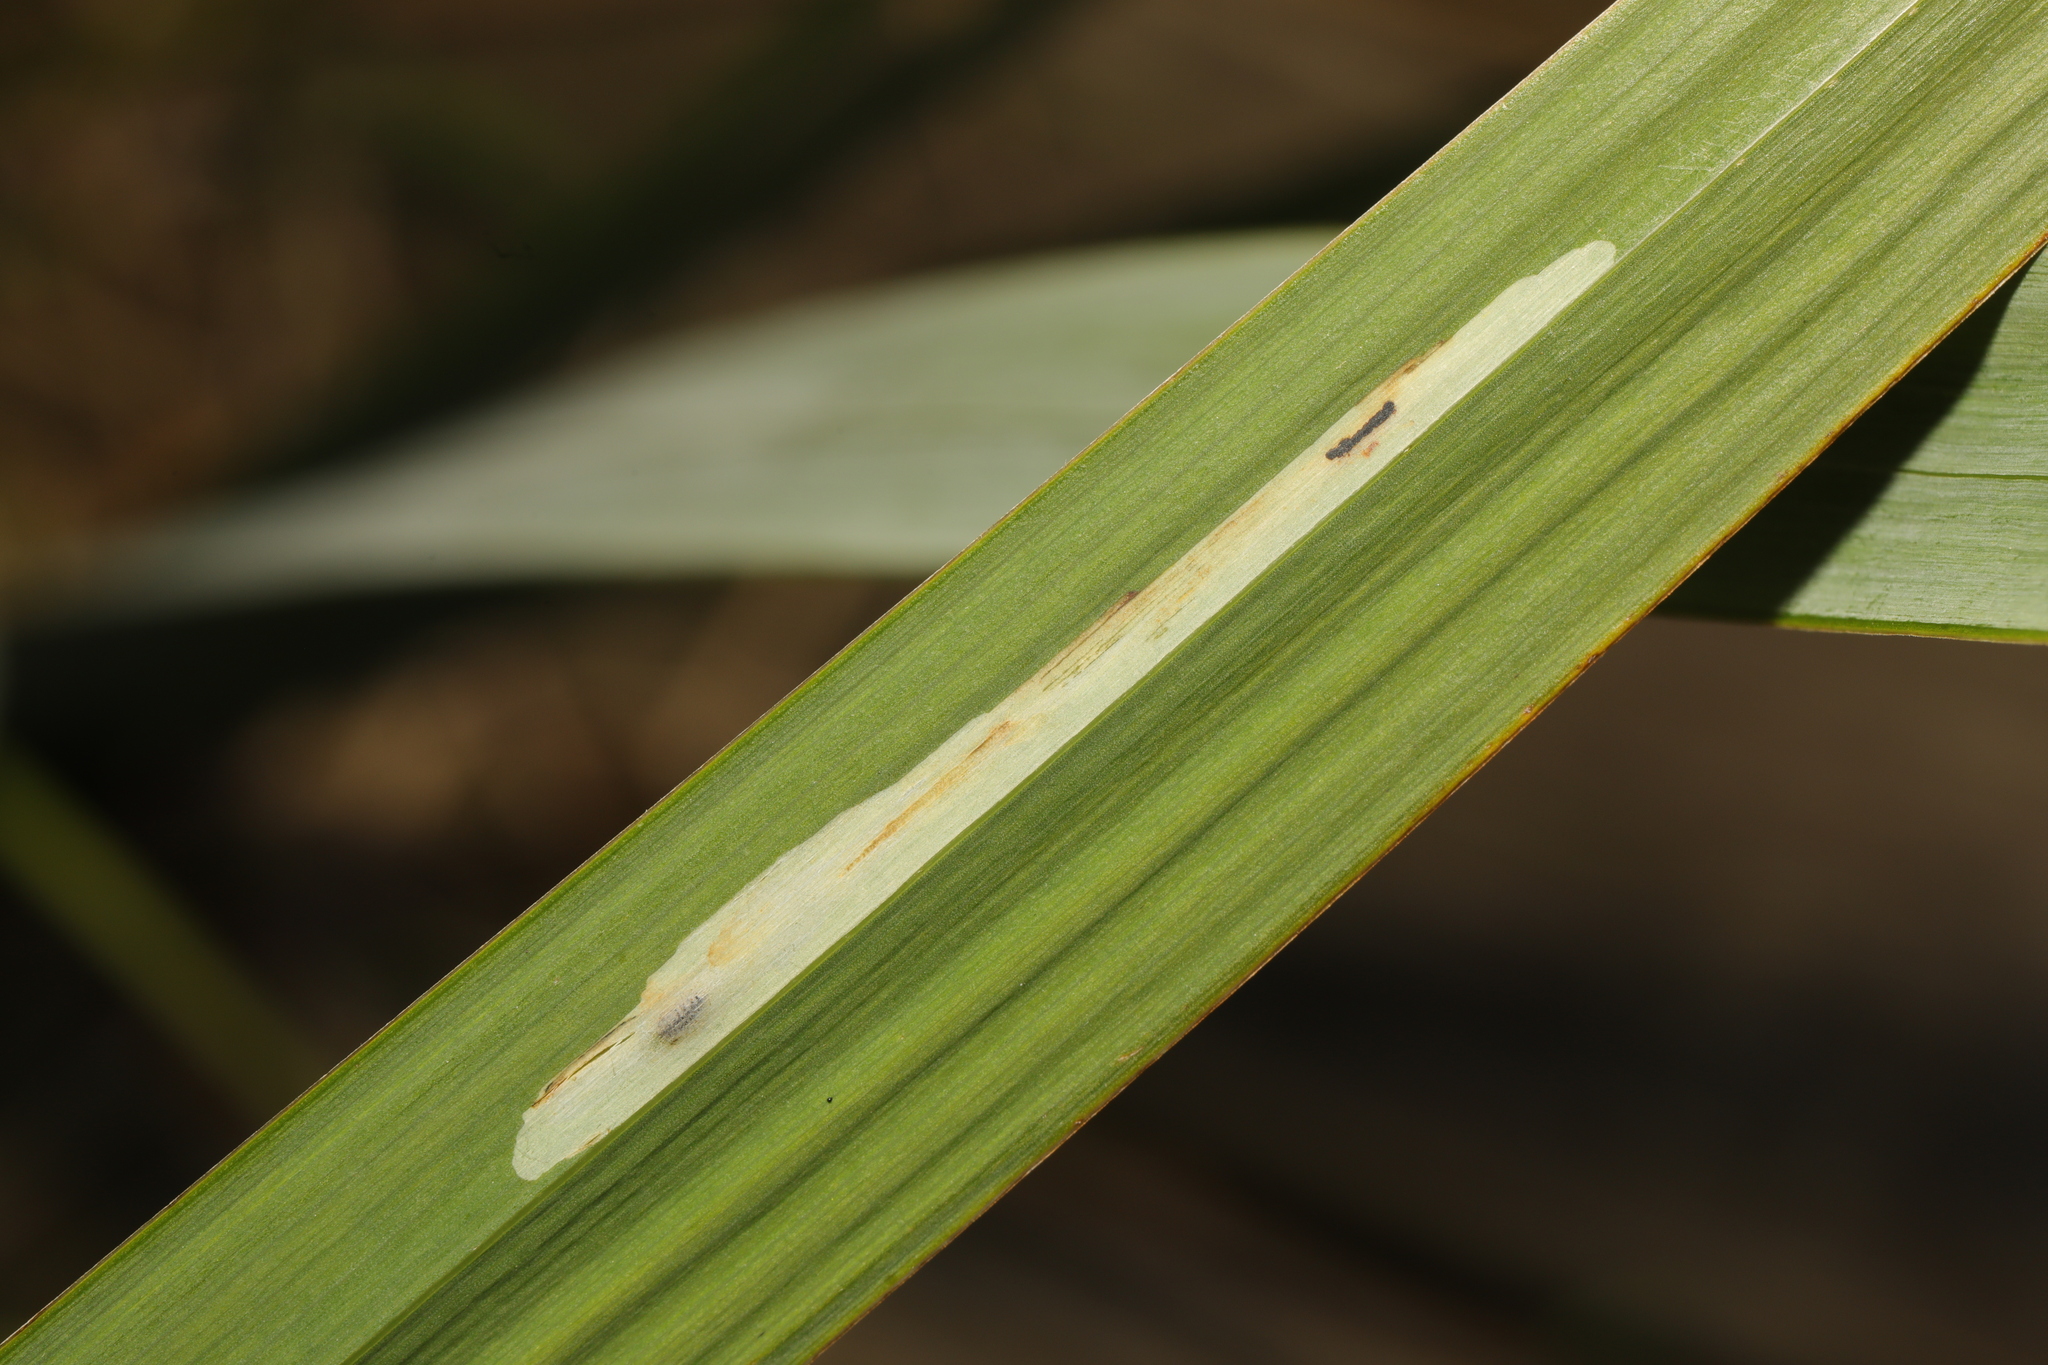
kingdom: Animalia
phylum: Arthropoda
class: Insecta
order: Diptera
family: Agromyzidae
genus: Cerodontha
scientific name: Cerodontha ircos
